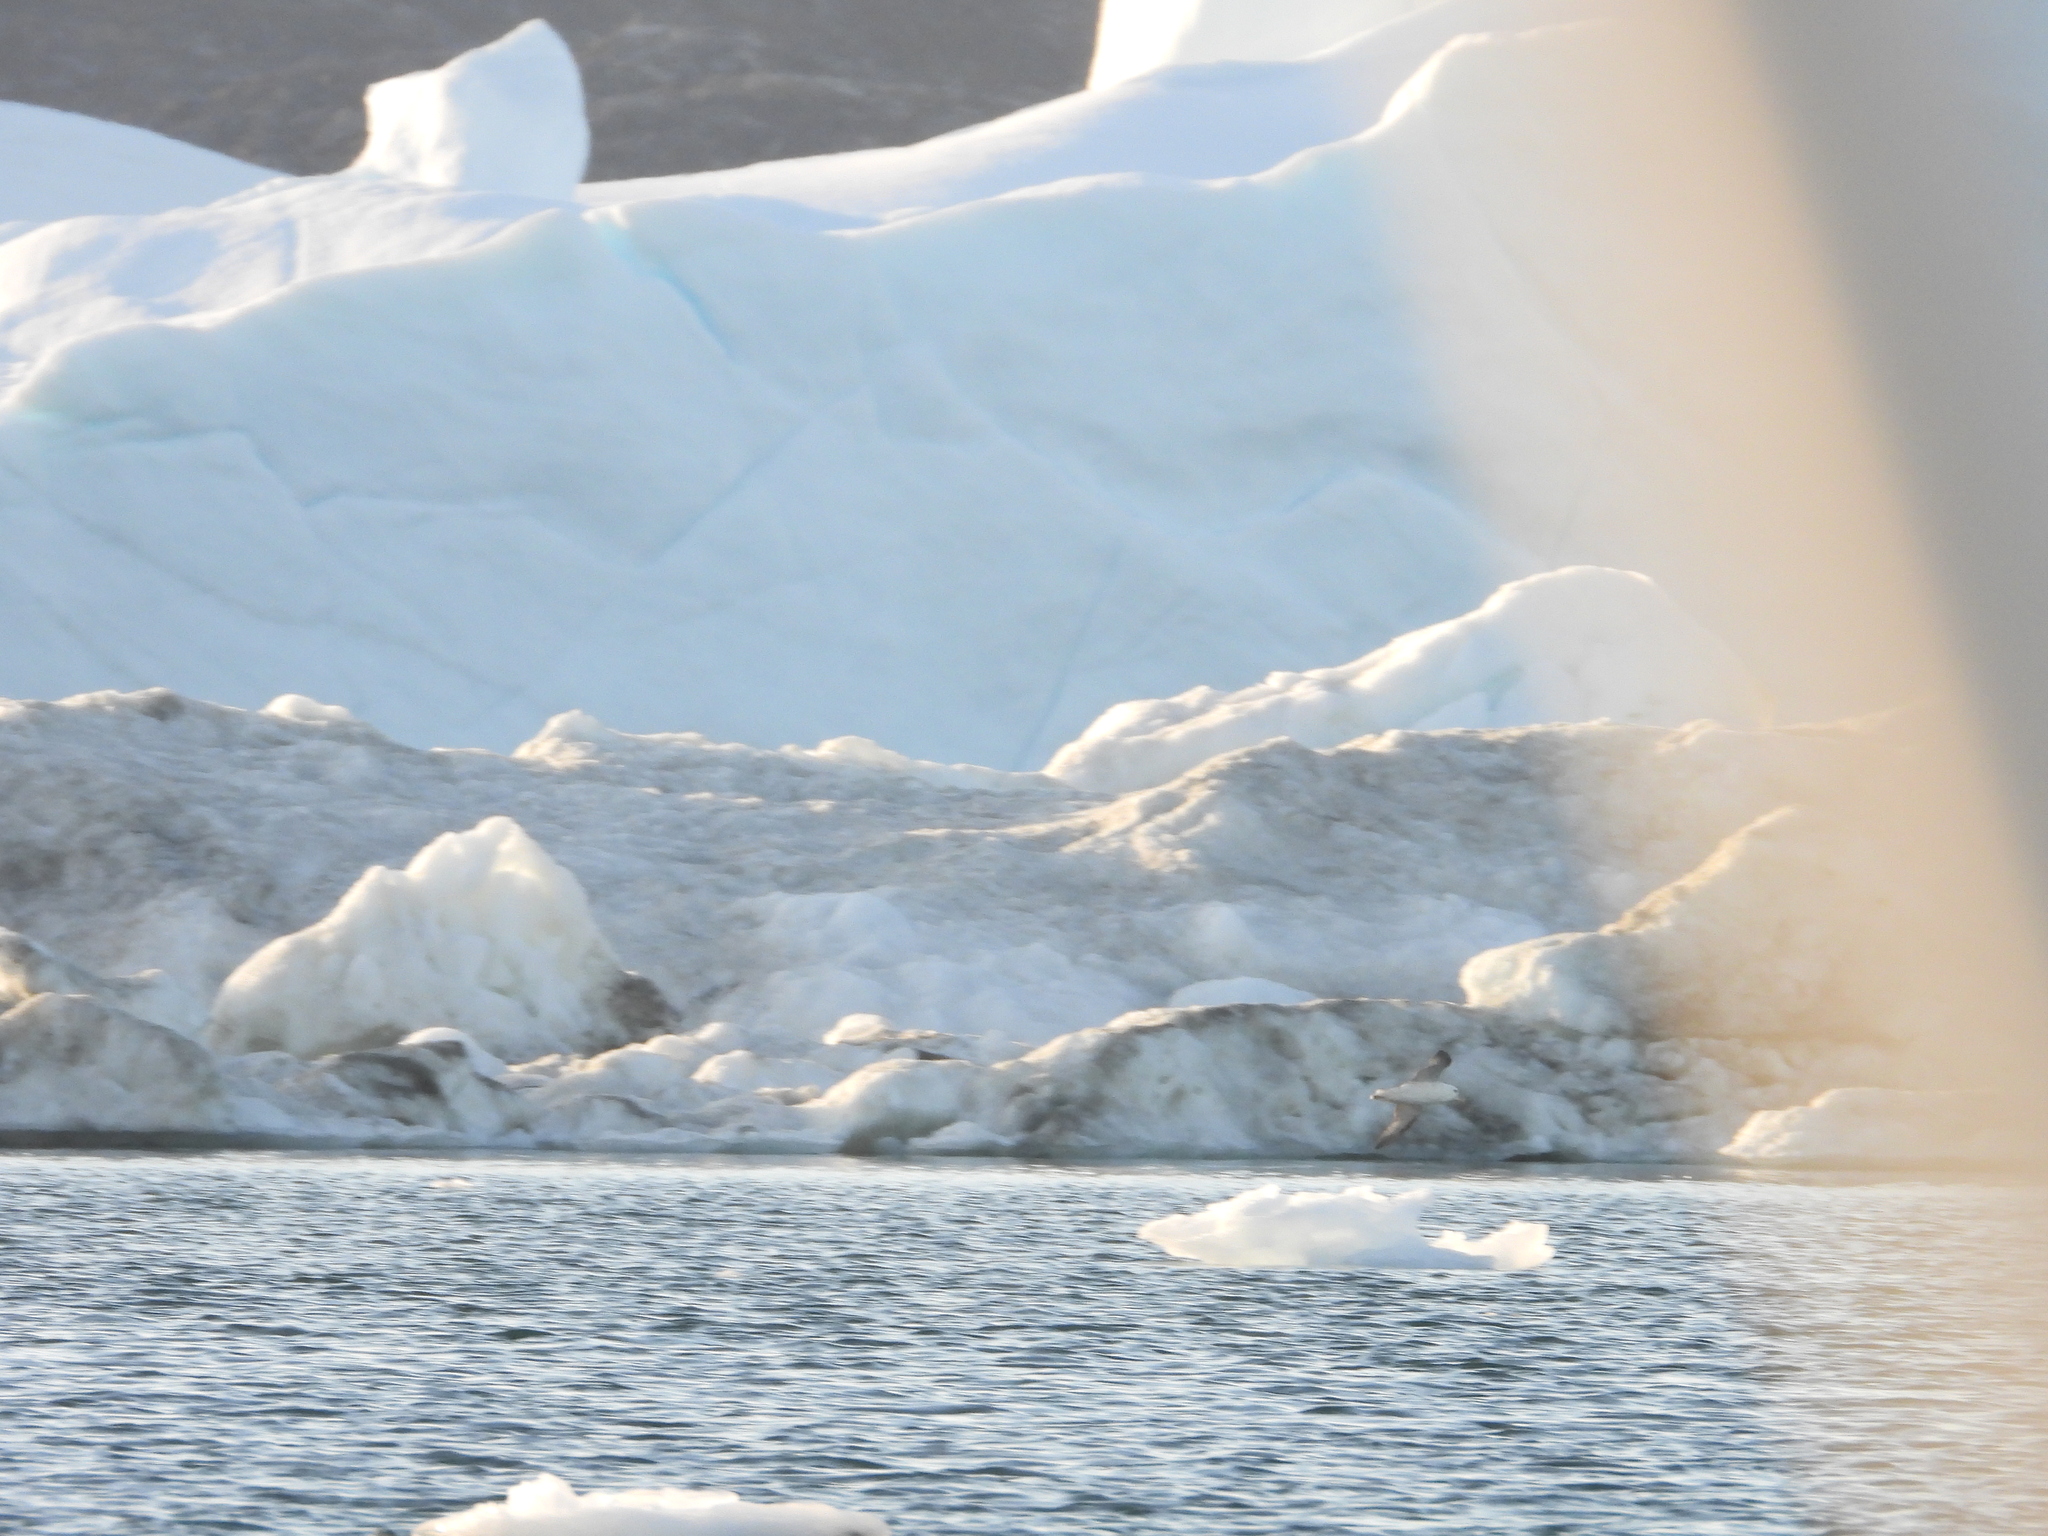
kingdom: Animalia
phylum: Chordata
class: Aves
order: Procellariiformes
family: Procellariidae
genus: Fulmarus
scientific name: Fulmarus glacialis
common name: Northern fulmar
